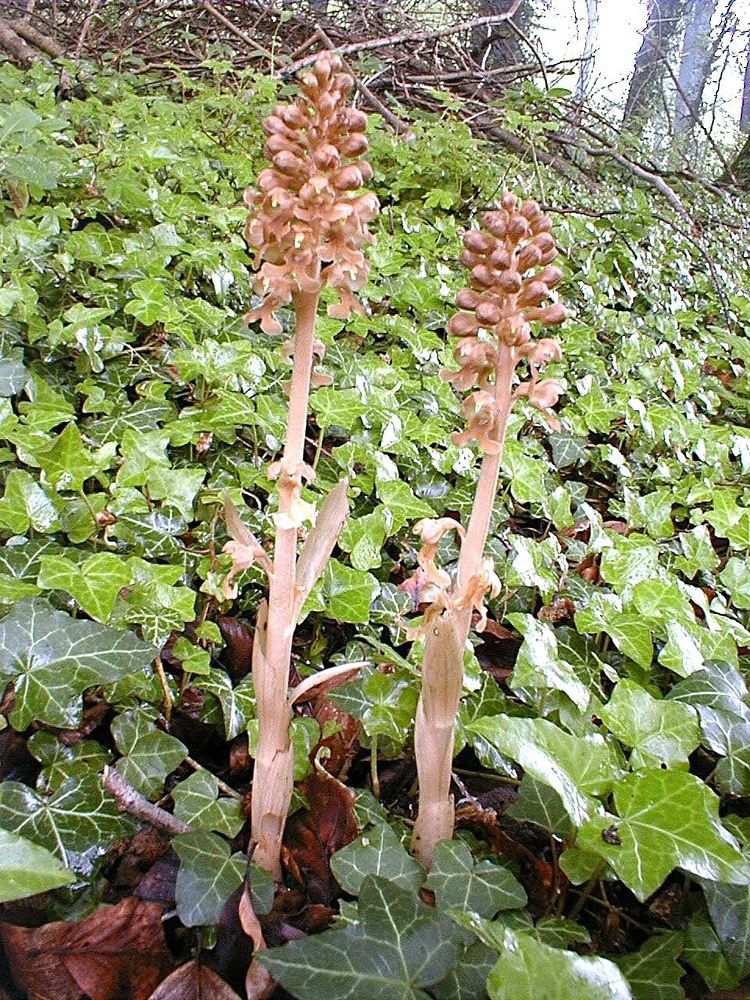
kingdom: Plantae
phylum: Tracheophyta
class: Liliopsida
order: Asparagales
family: Orchidaceae
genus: Neottia
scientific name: Neottia nidus-avis
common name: Bird's-nest orchid
